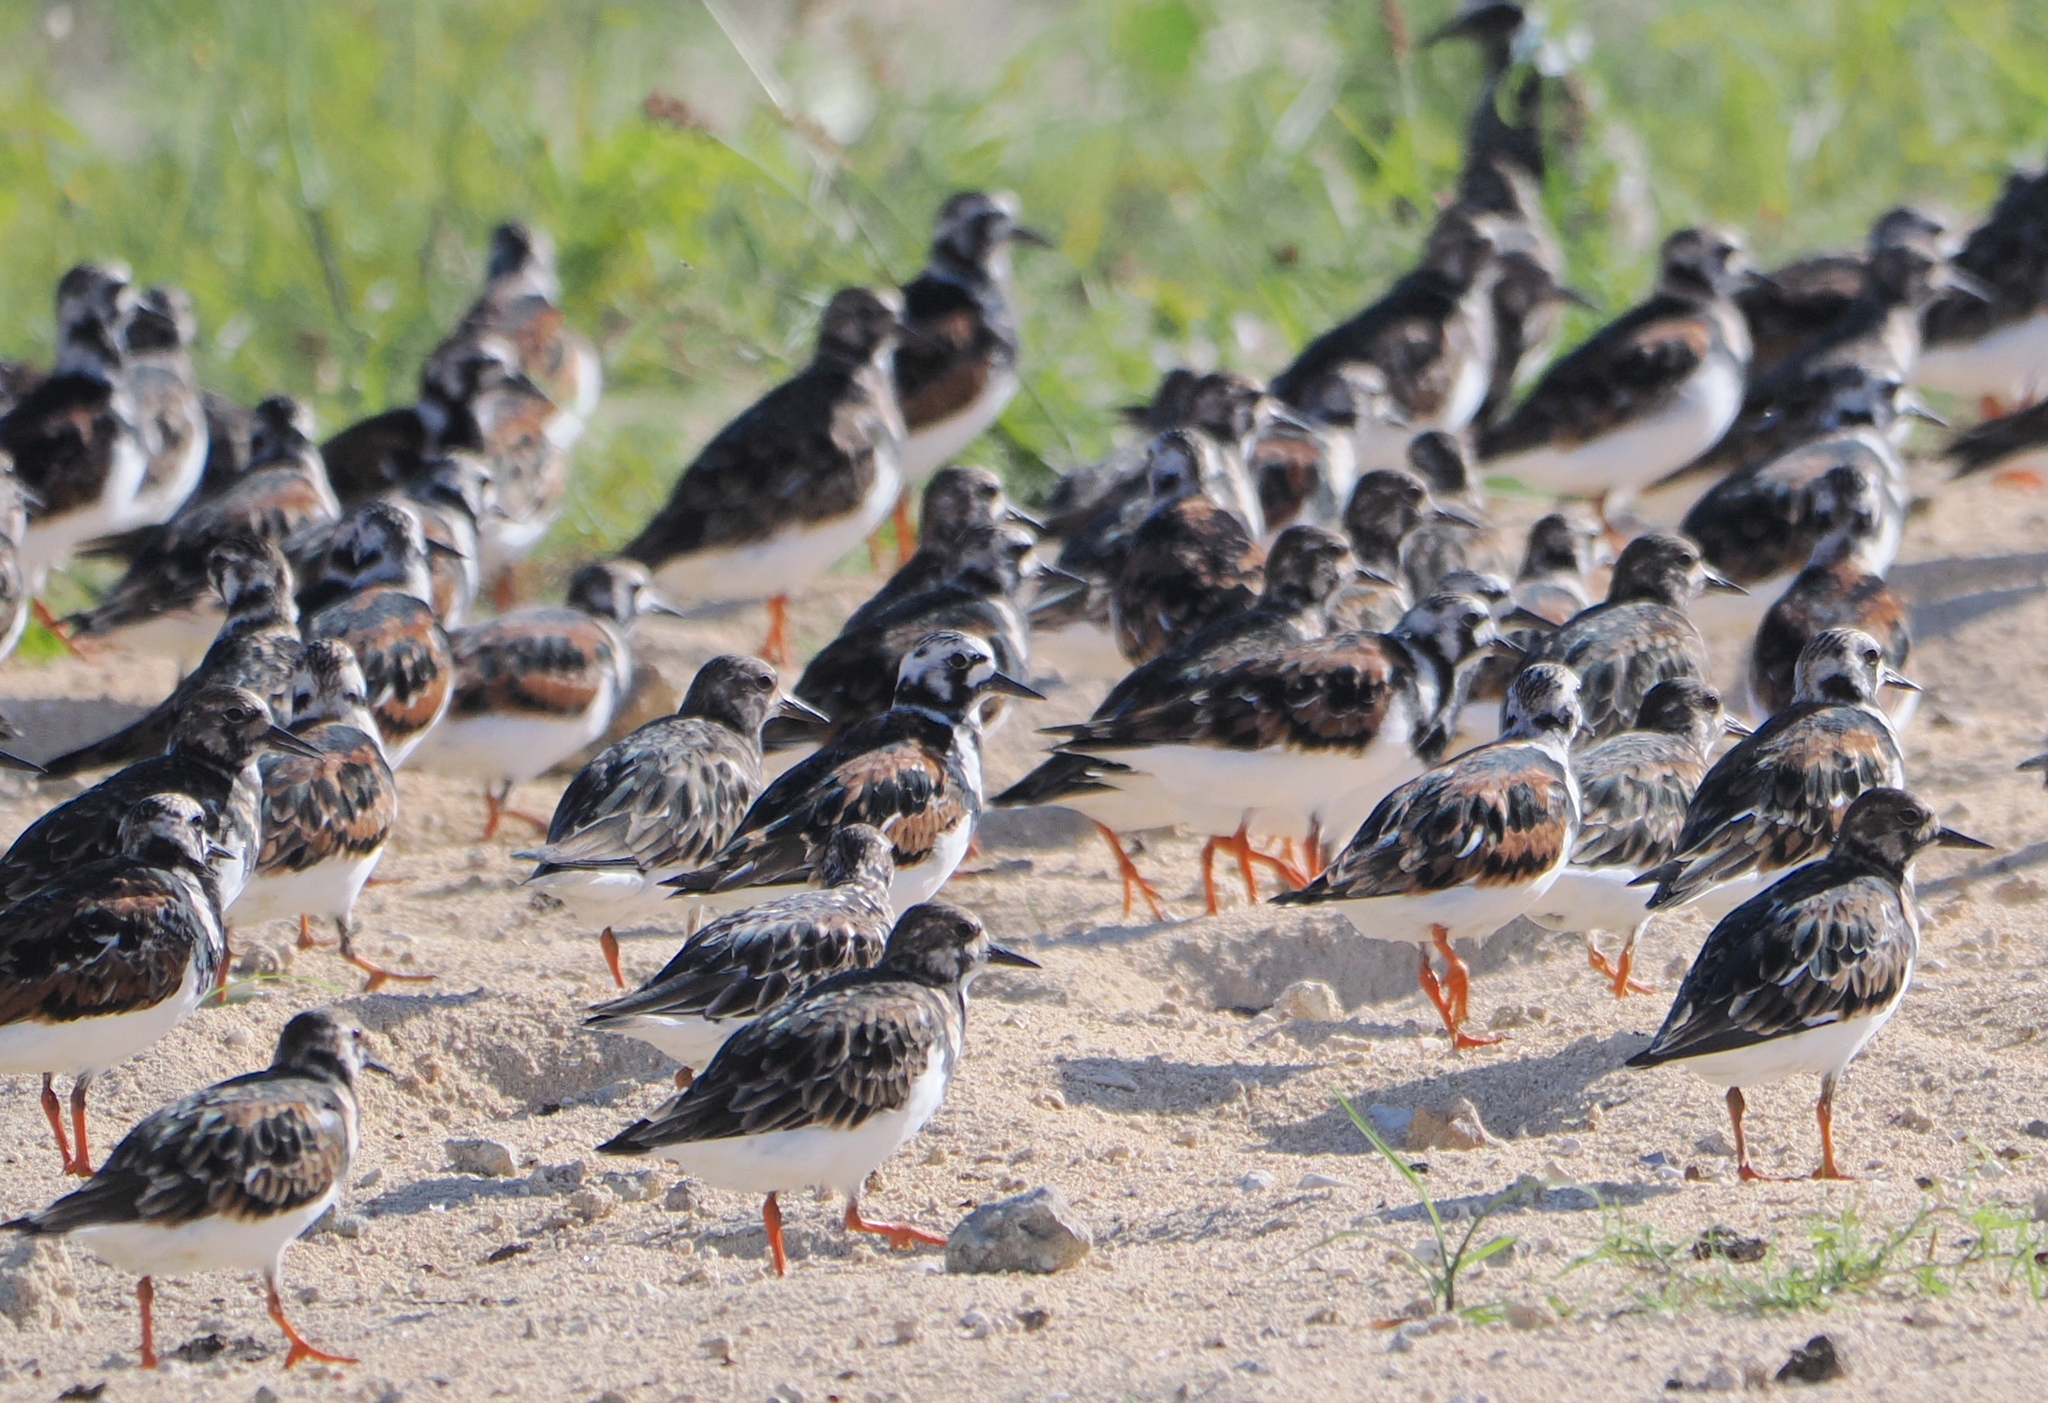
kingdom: Animalia
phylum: Chordata
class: Aves
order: Charadriiformes
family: Scolopacidae
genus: Arenaria
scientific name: Arenaria interpres
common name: Ruddy turnstone
